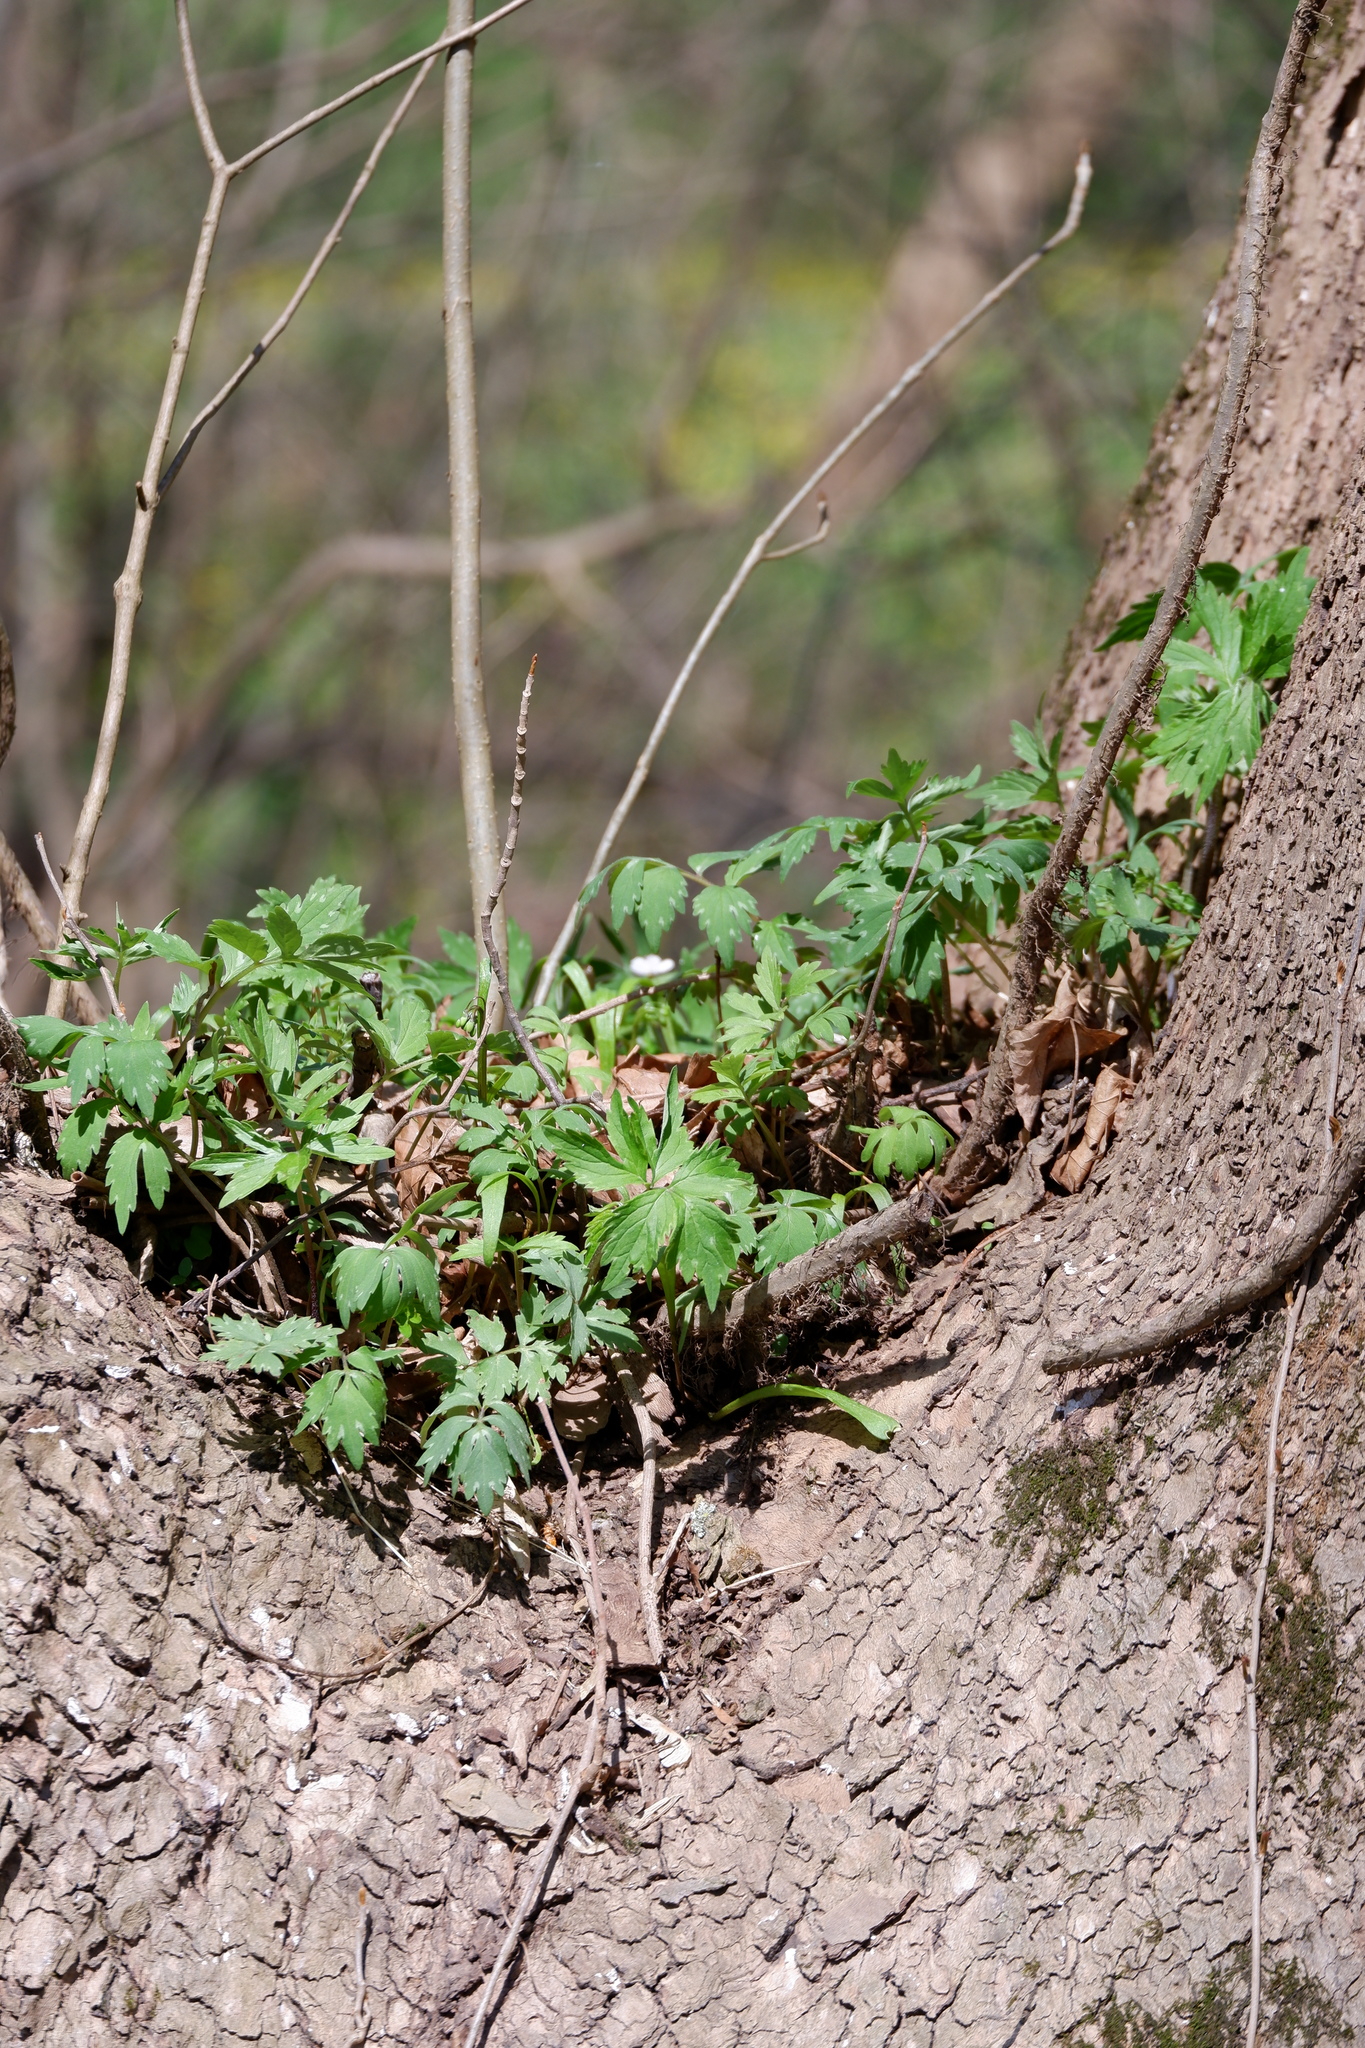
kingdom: Plantae
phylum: Tracheophyta
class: Magnoliopsida
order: Boraginales
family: Hydrophyllaceae
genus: Hydrophyllum
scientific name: Hydrophyllum virginianum
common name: Virginia waterleaf
